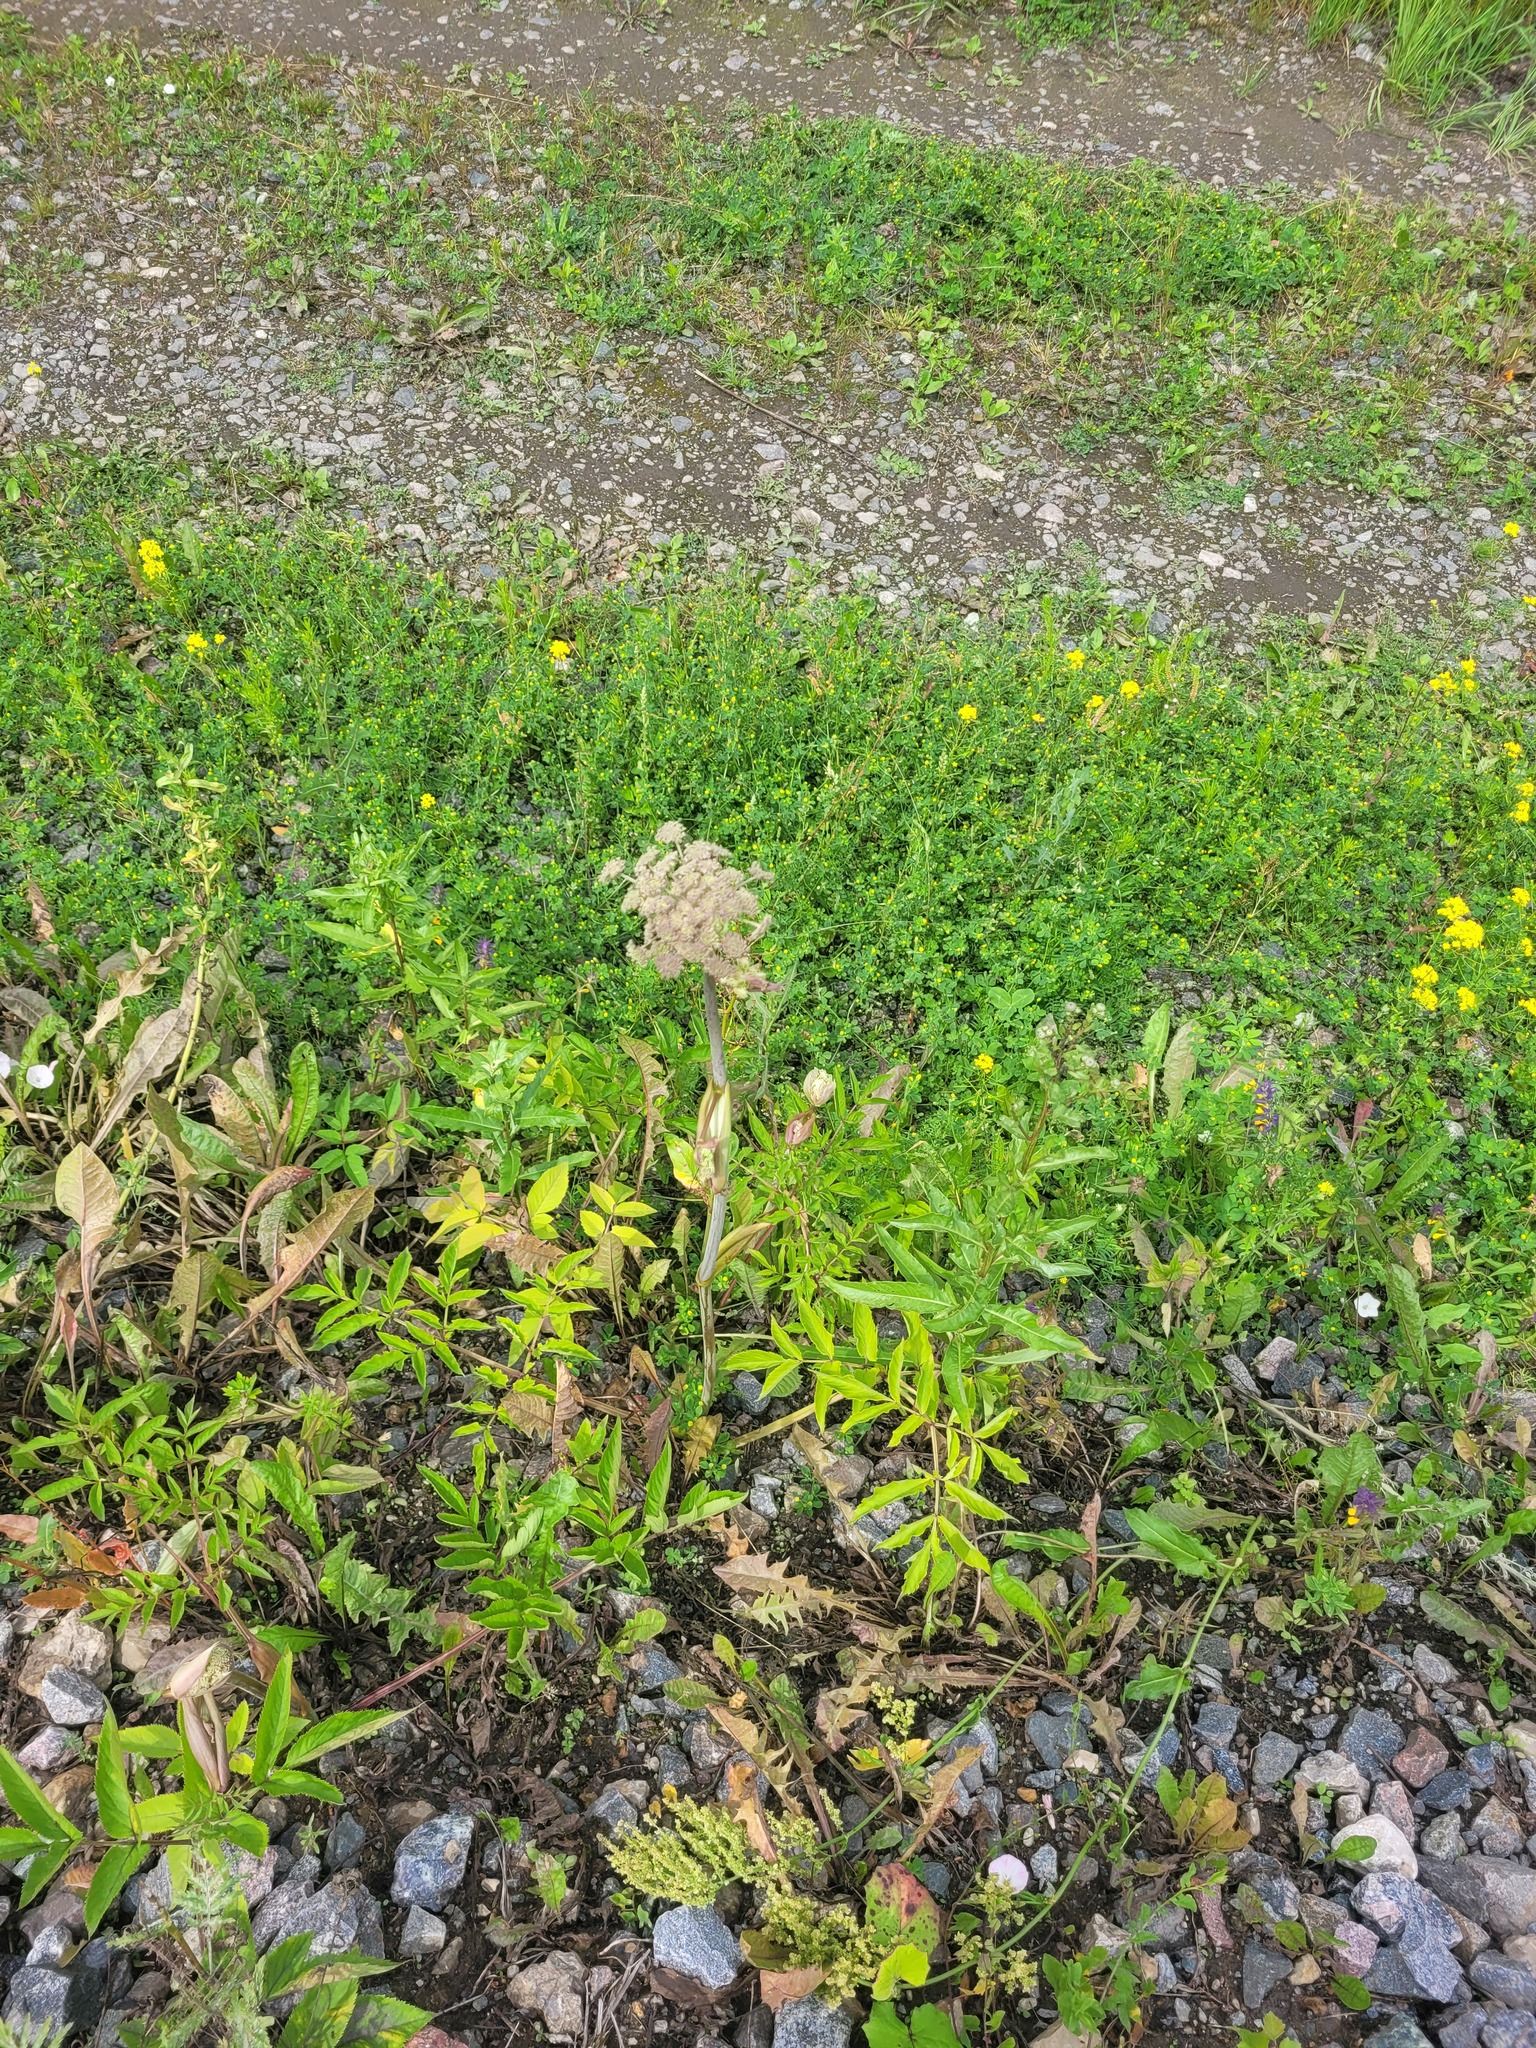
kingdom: Plantae
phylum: Tracheophyta
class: Magnoliopsida
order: Apiales
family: Apiaceae
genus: Angelica
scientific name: Angelica sylvestris
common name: Wild angelica
